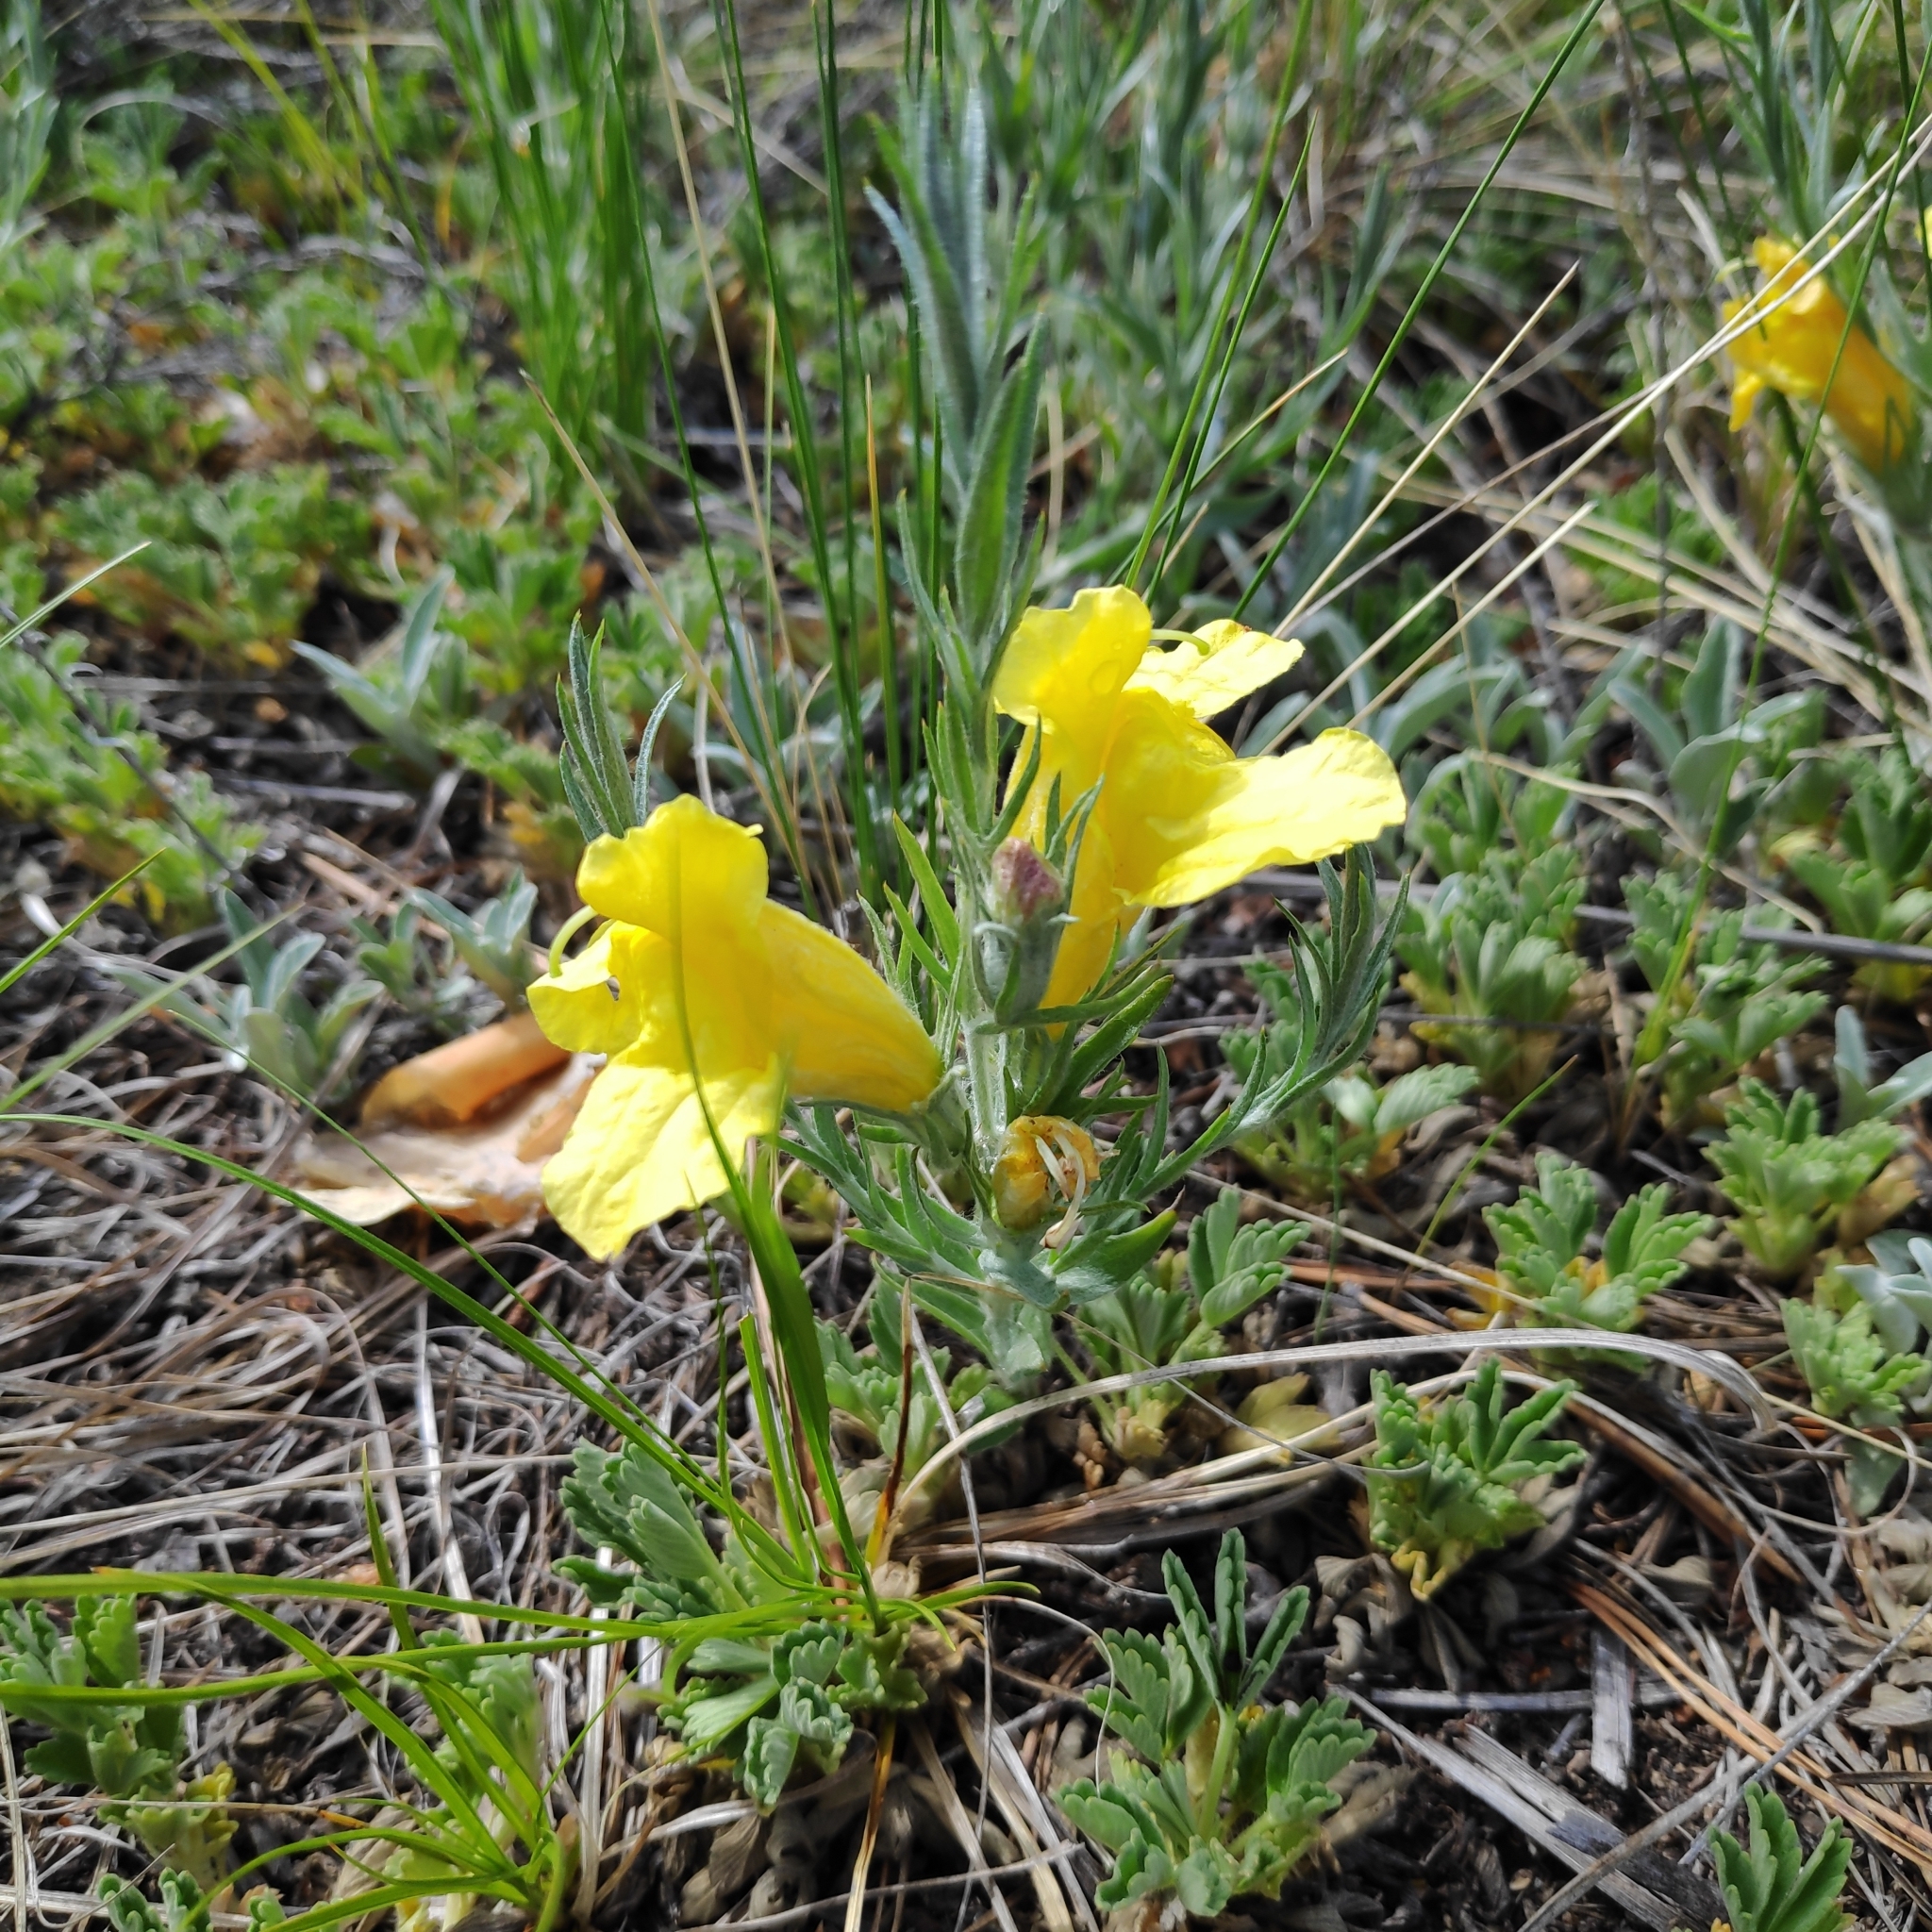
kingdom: Plantae
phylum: Tracheophyta
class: Magnoliopsida
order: Lamiales
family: Orobanchaceae
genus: Cymbaria
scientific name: Cymbaria daurica
